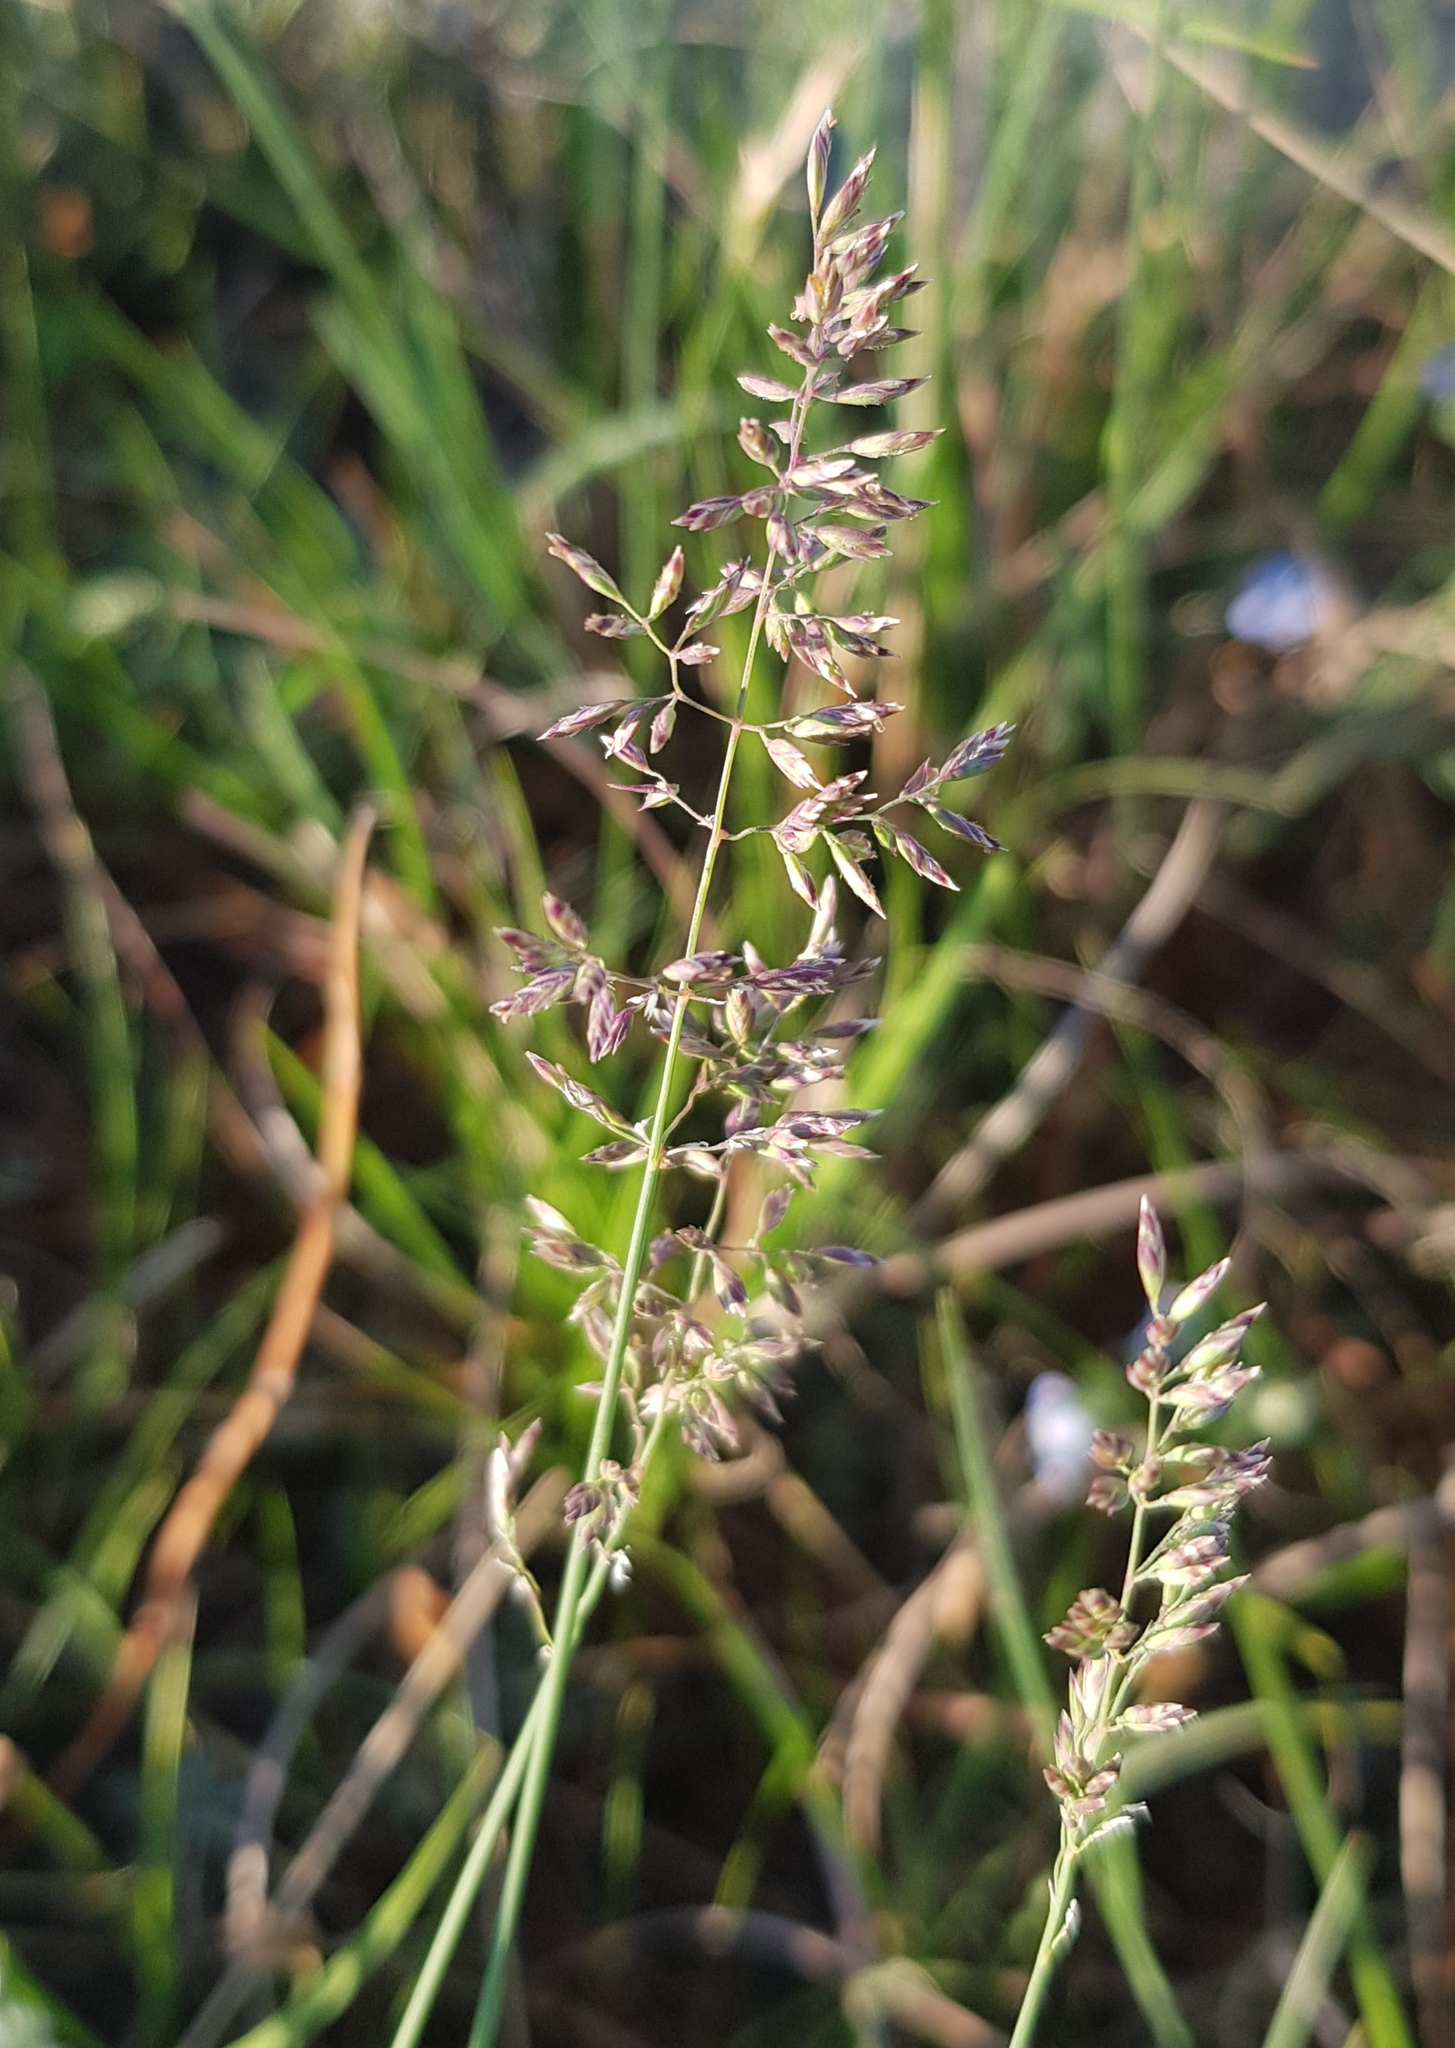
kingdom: Plantae
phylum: Tracheophyta
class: Liliopsida
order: Poales
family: Poaceae
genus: Poa
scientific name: Poa pratensis
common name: Kentucky bluegrass
